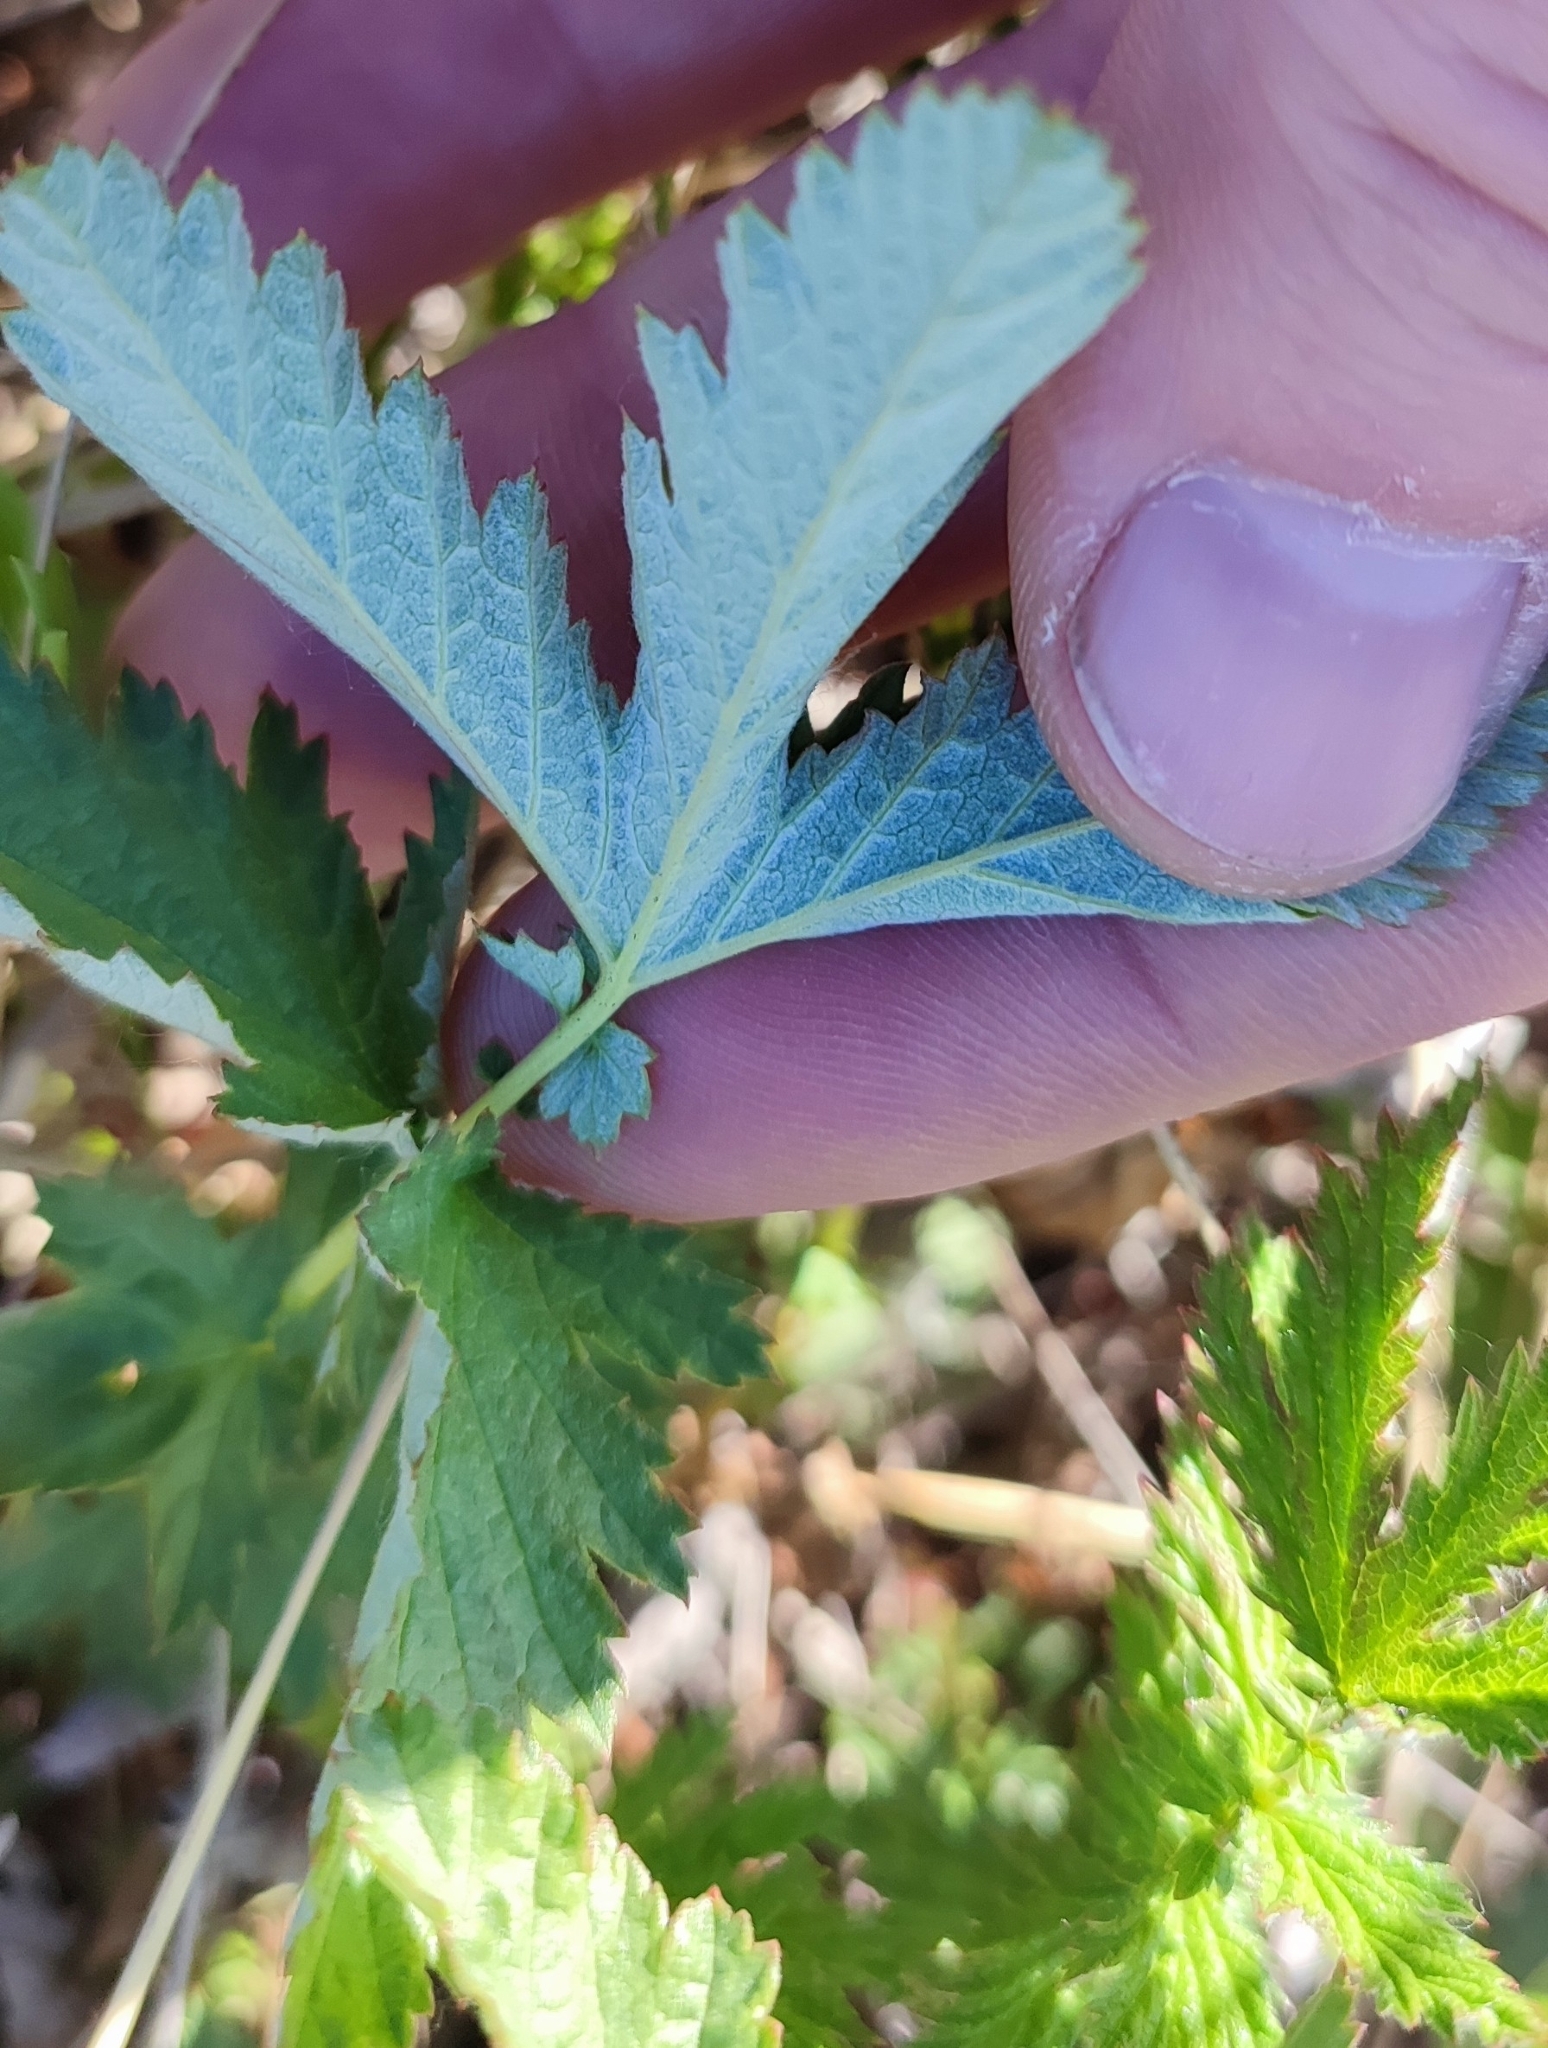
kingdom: Plantae
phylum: Tracheophyta
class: Magnoliopsida
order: Rosales
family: Rosaceae
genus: Filipendula
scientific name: Filipendula ulmaria
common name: Meadowsweet
